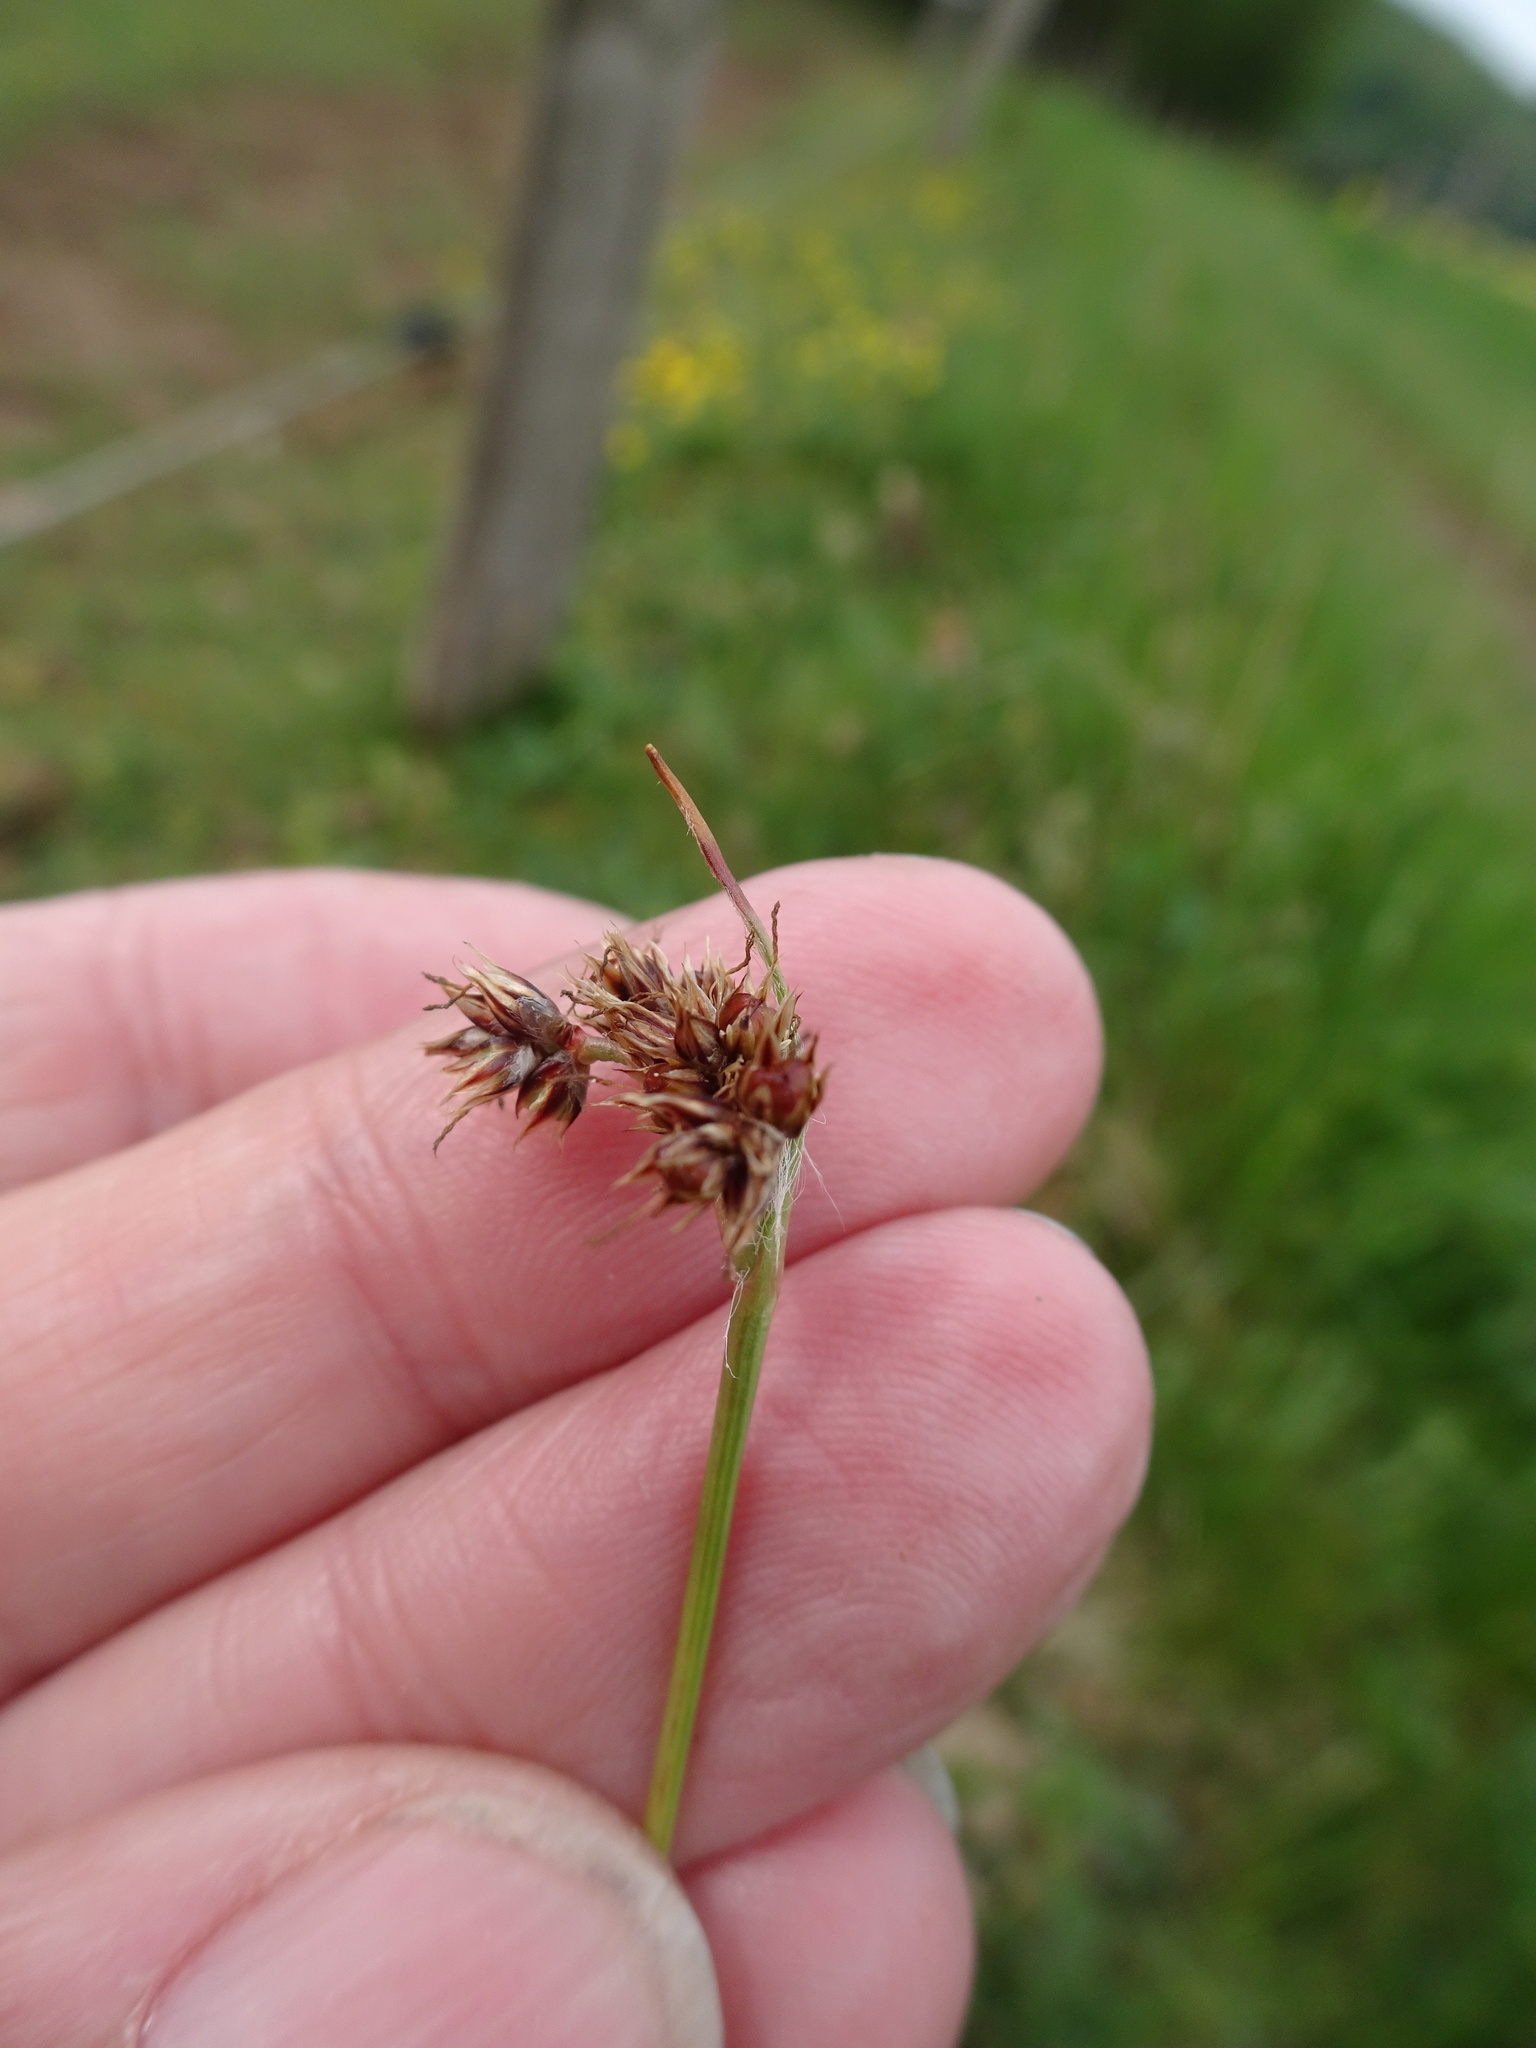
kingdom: Plantae
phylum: Tracheophyta
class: Liliopsida
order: Poales
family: Juncaceae
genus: Luzula
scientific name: Luzula campestris
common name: Field wood-rush
